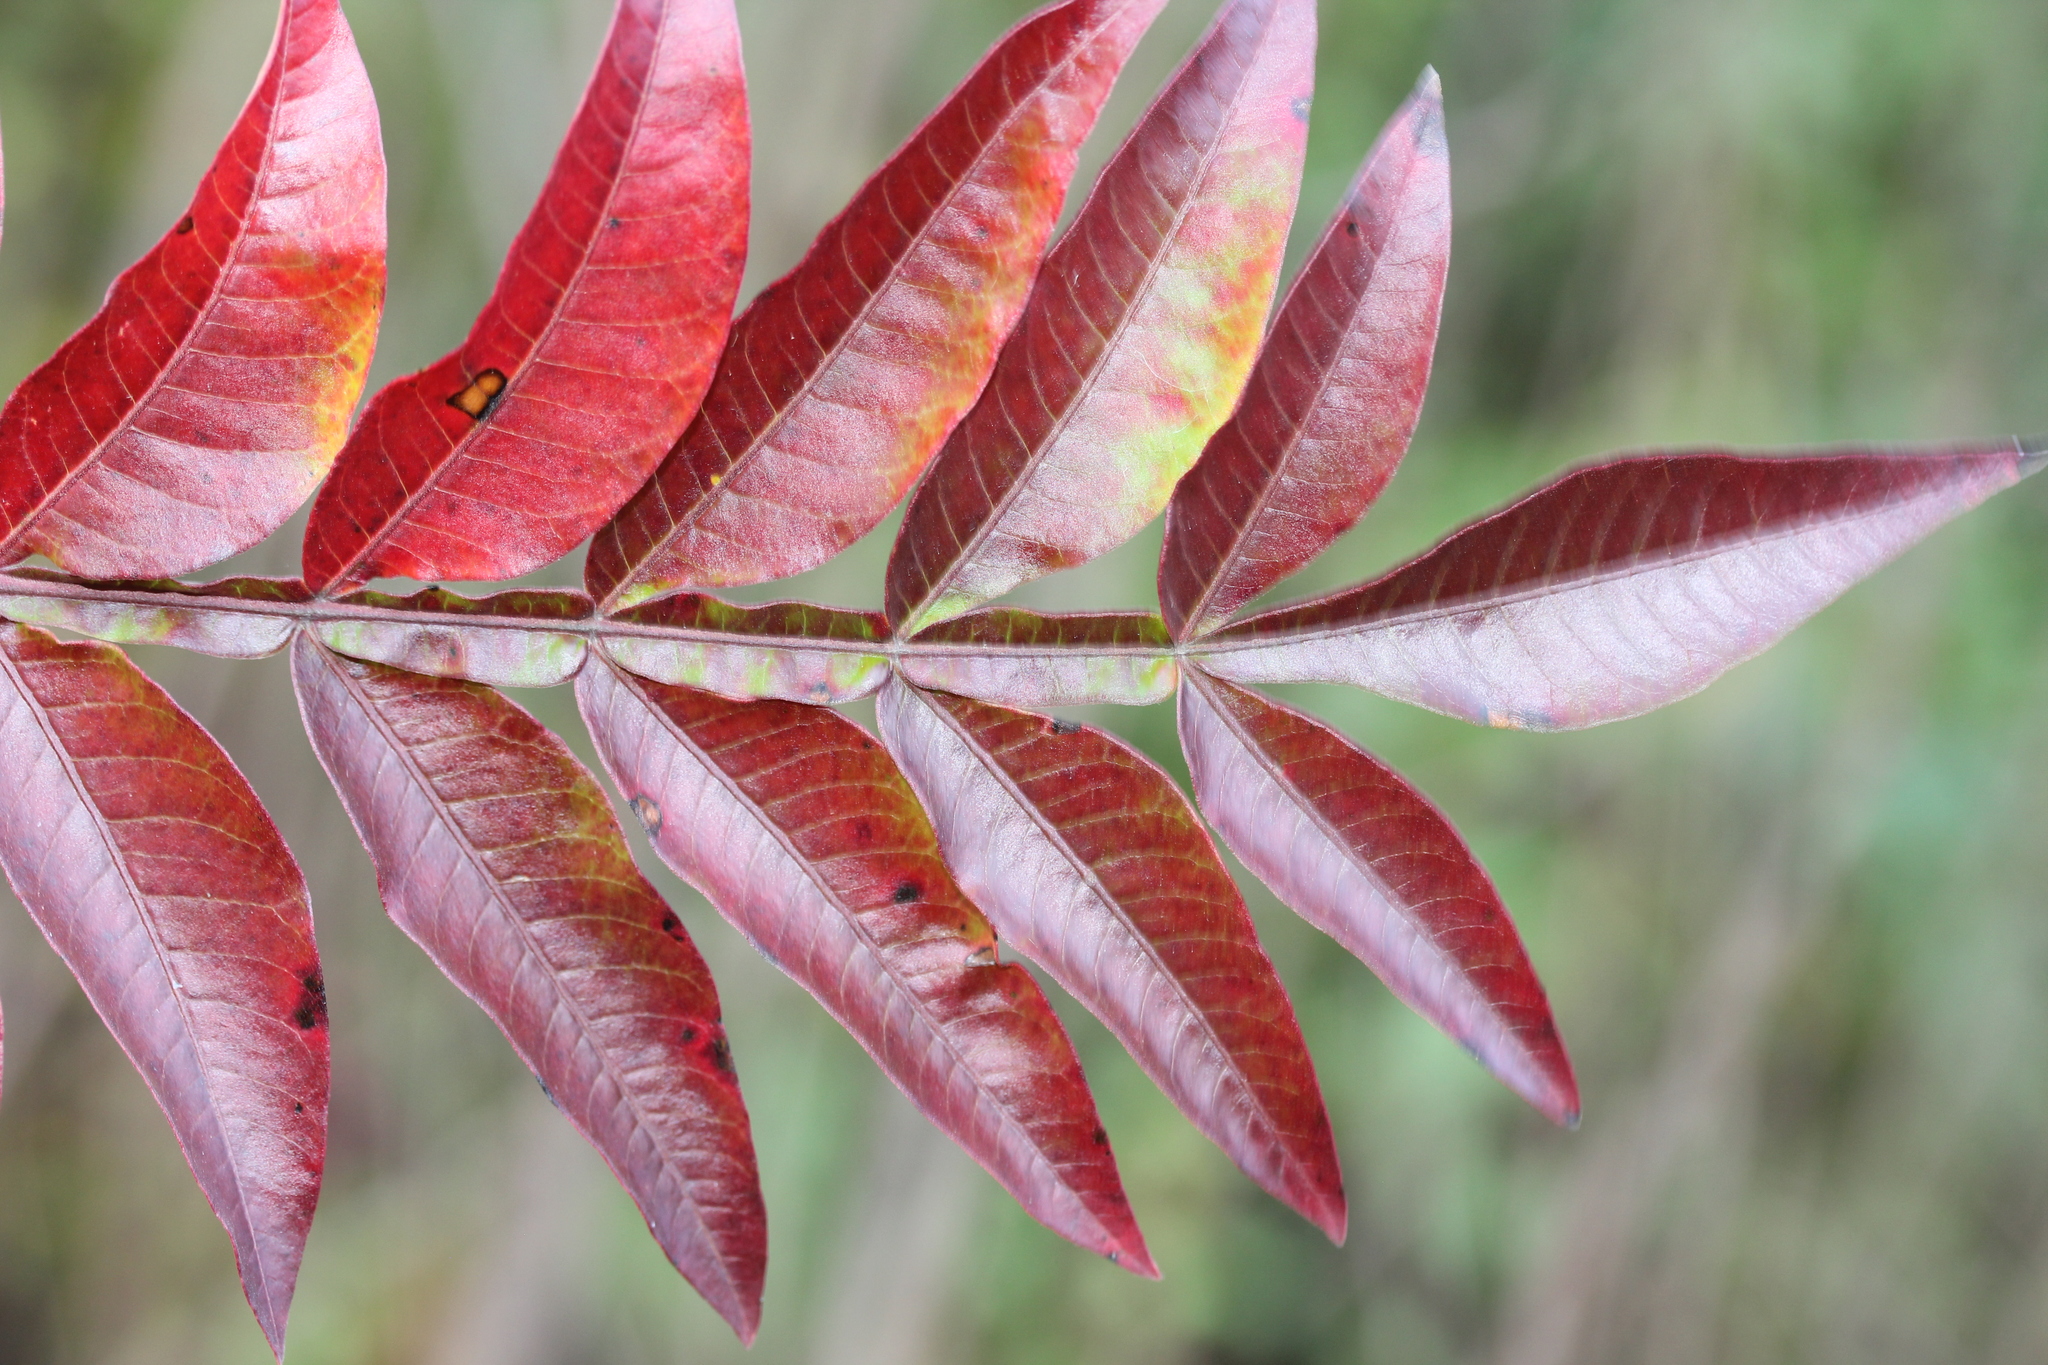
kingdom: Plantae
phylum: Tracheophyta
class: Magnoliopsida
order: Sapindales
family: Anacardiaceae
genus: Rhus
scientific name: Rhus copallina
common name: Shining sumac
